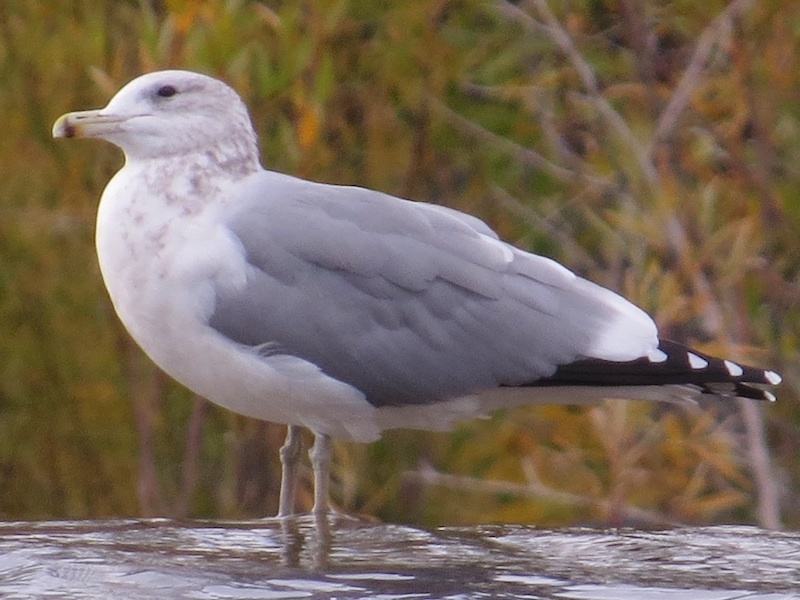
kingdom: Animalia
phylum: Chordata
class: Aves
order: Charadriiformes
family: Laridae
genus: Larus
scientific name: Larus californicus
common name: California gull
